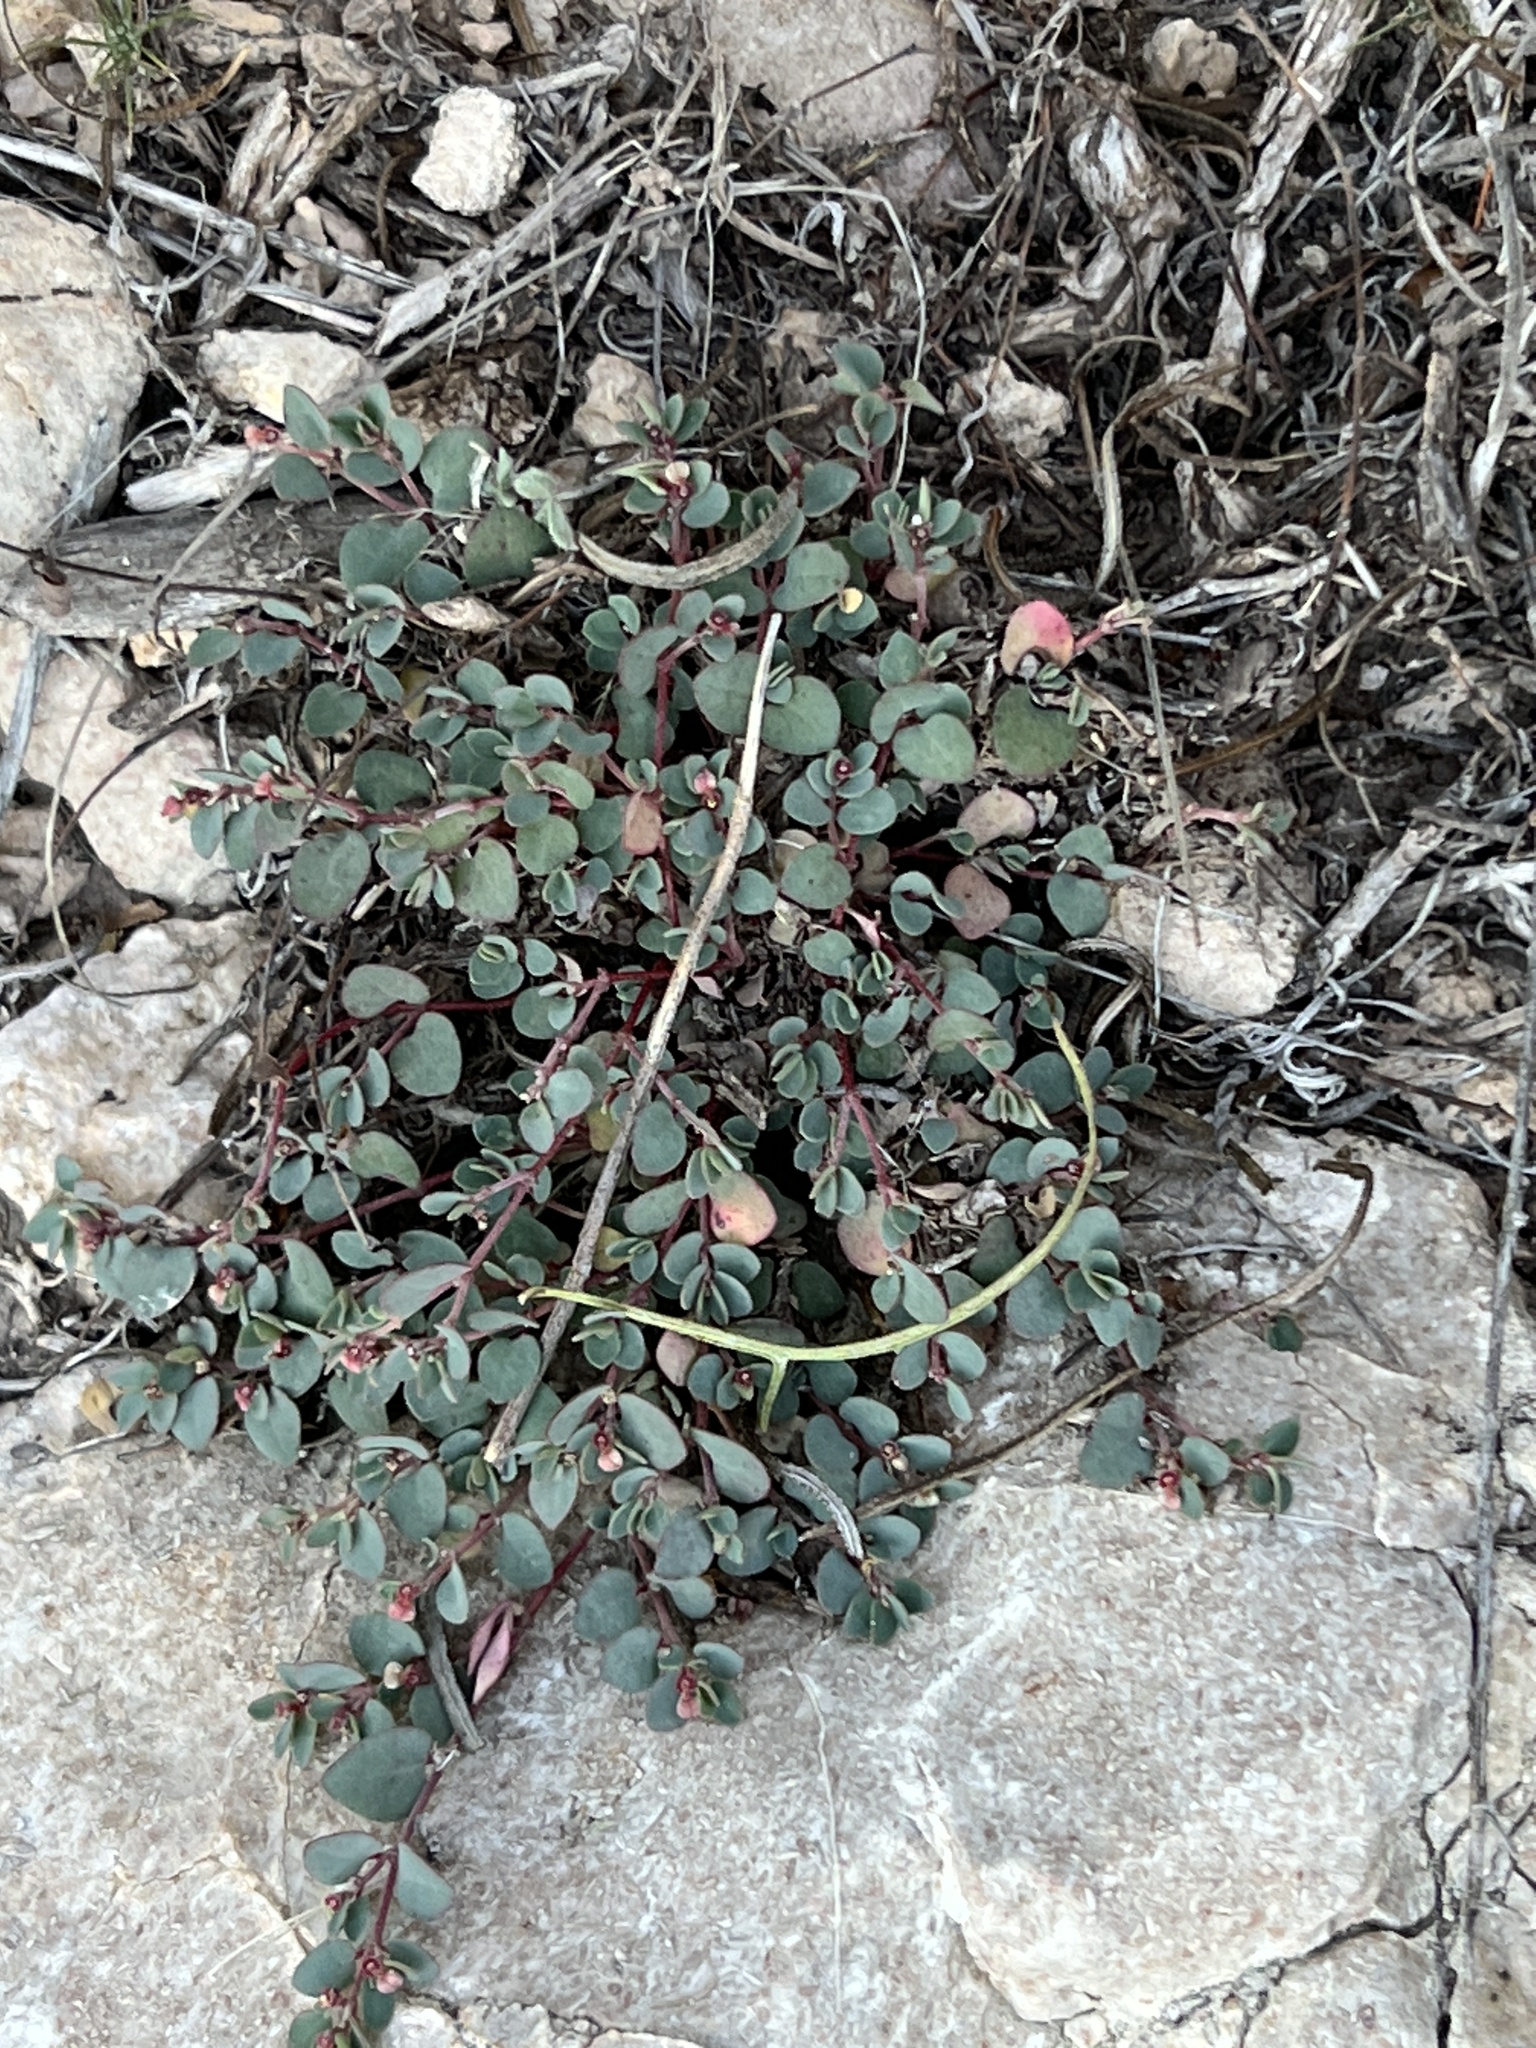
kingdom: Plantae
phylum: Tracheophyta
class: Magnoliopsida
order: Malpighiales
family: Euphorbiaceae
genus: Euphorbia
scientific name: Euphorbia cinerascens
